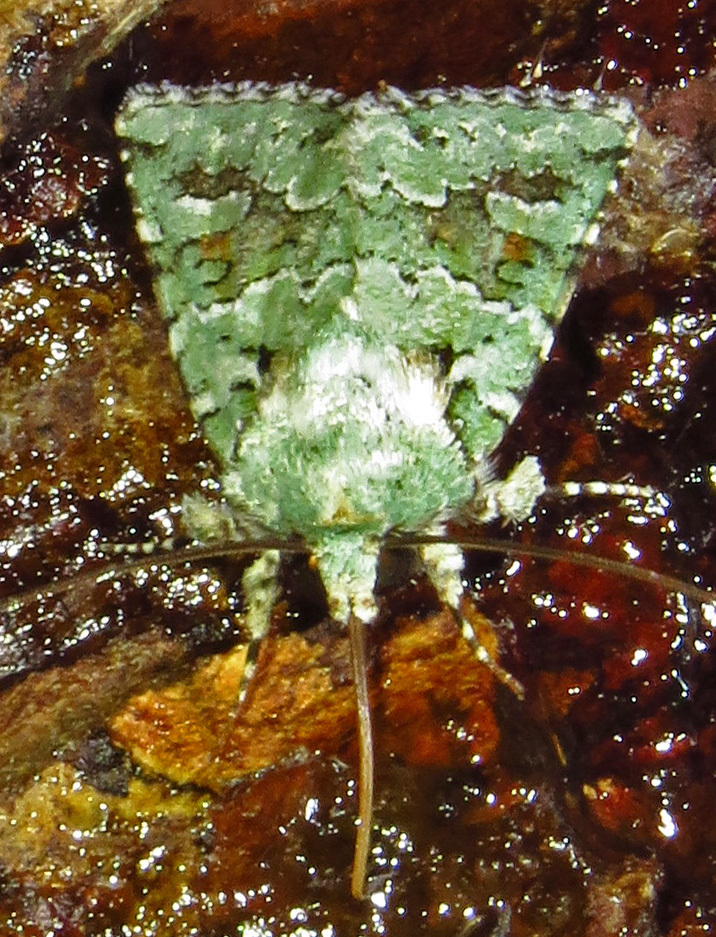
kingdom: Animalia
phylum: Arthropoda
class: Insecta
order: Lepidoptera
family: Noctuidae
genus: Lacinipolia
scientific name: Lacinipolia laudabilis
